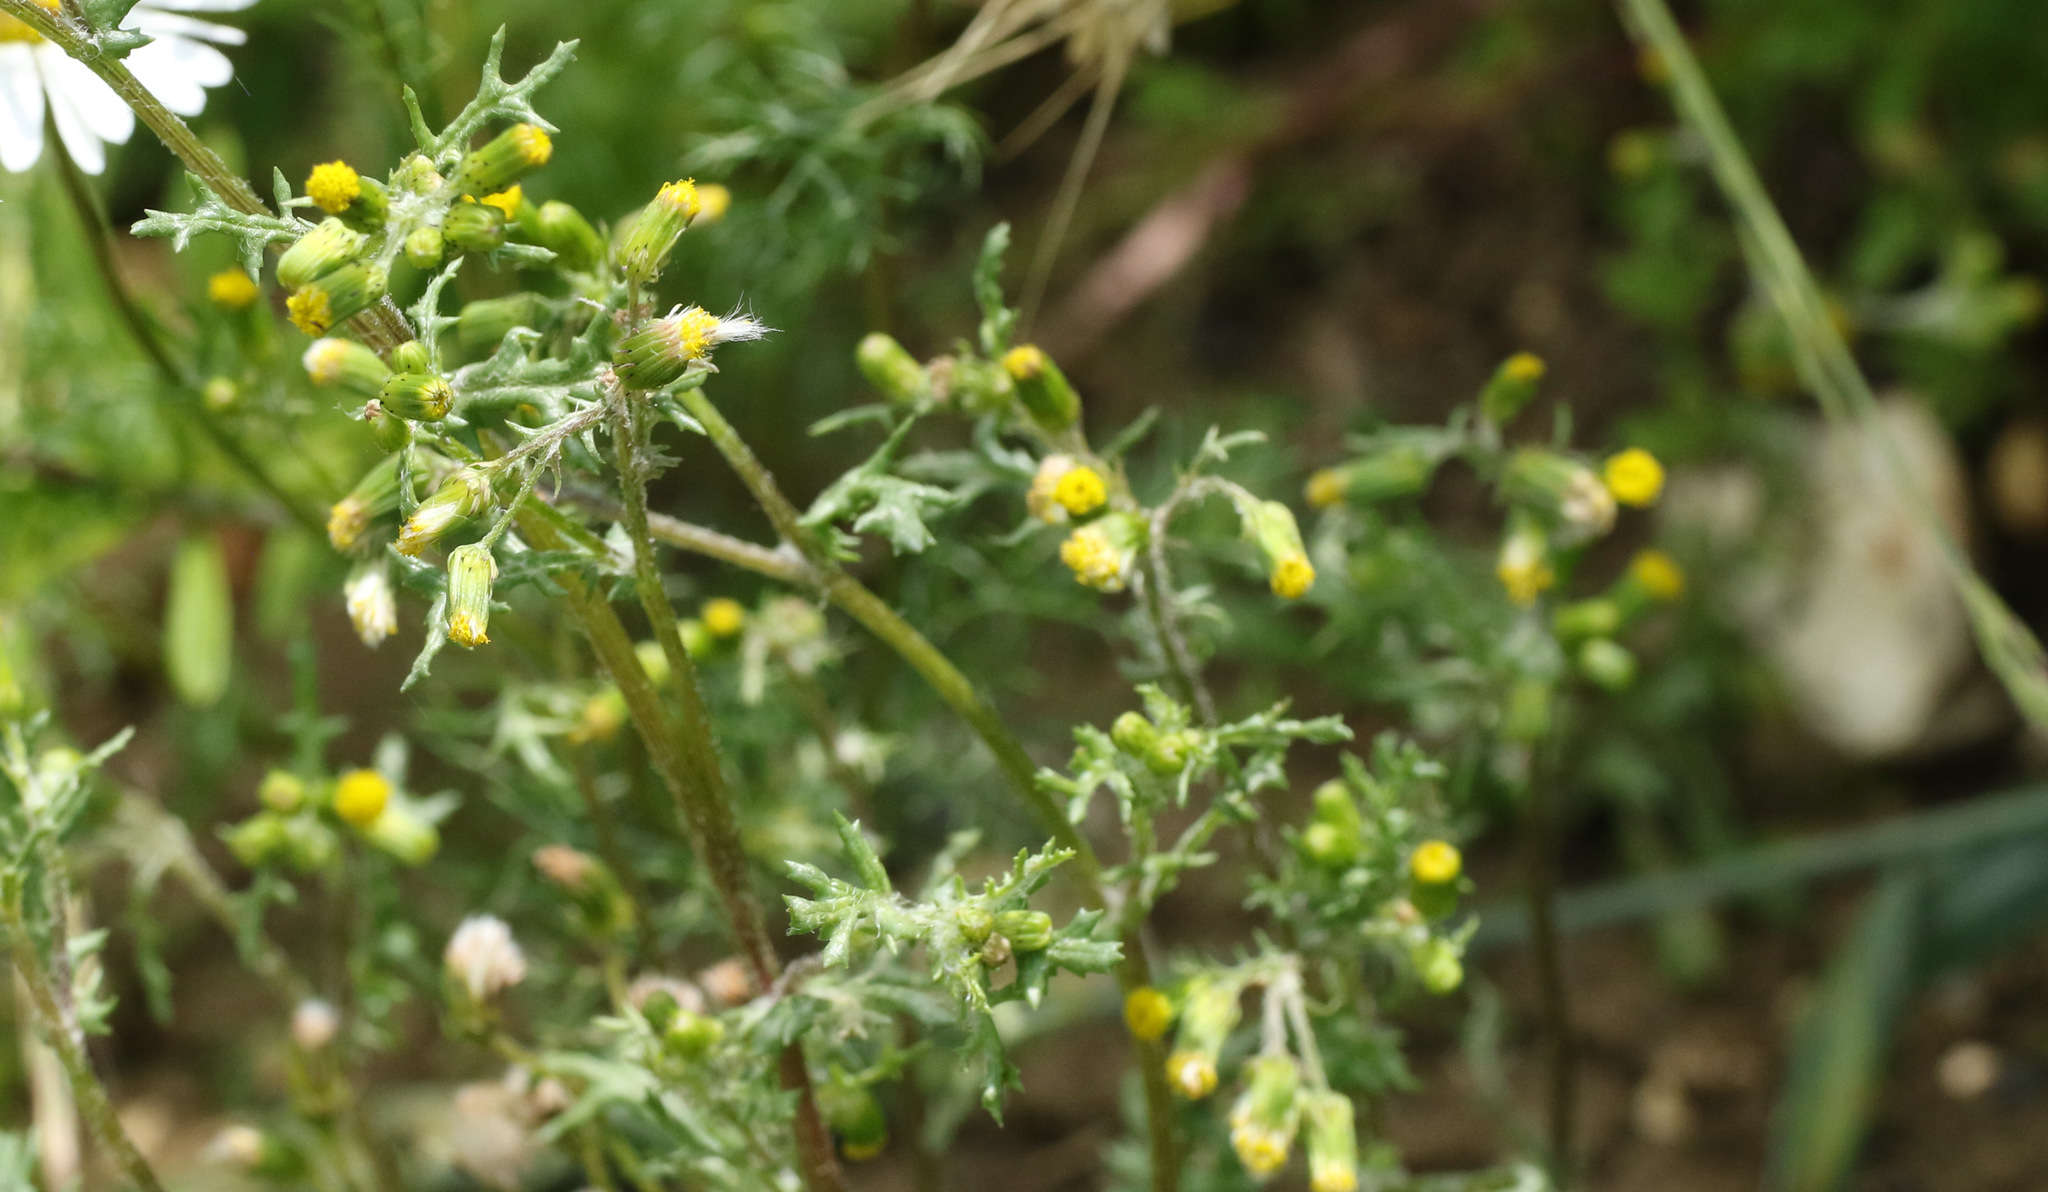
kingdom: Plantae
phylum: Tracheophyta
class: Magnoliopsida
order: Asterales
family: Asteraceae
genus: Senecio
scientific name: Senecio vulgaris
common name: Old-man-in-the-spring
